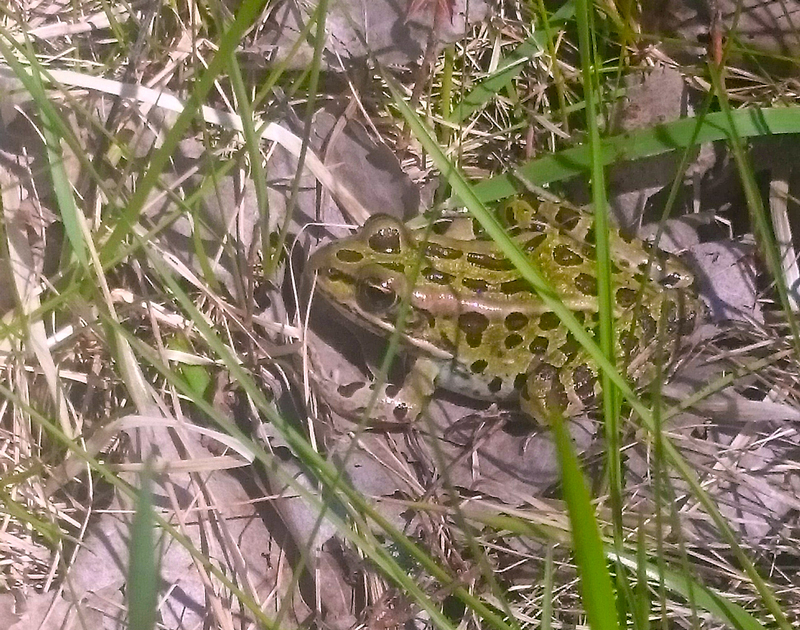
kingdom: Animalia
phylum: Chordata
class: Amphibia
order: Anura
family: Ranidae
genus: Lithobates
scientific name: Lithobates pipiens
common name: Northern leopard frog
